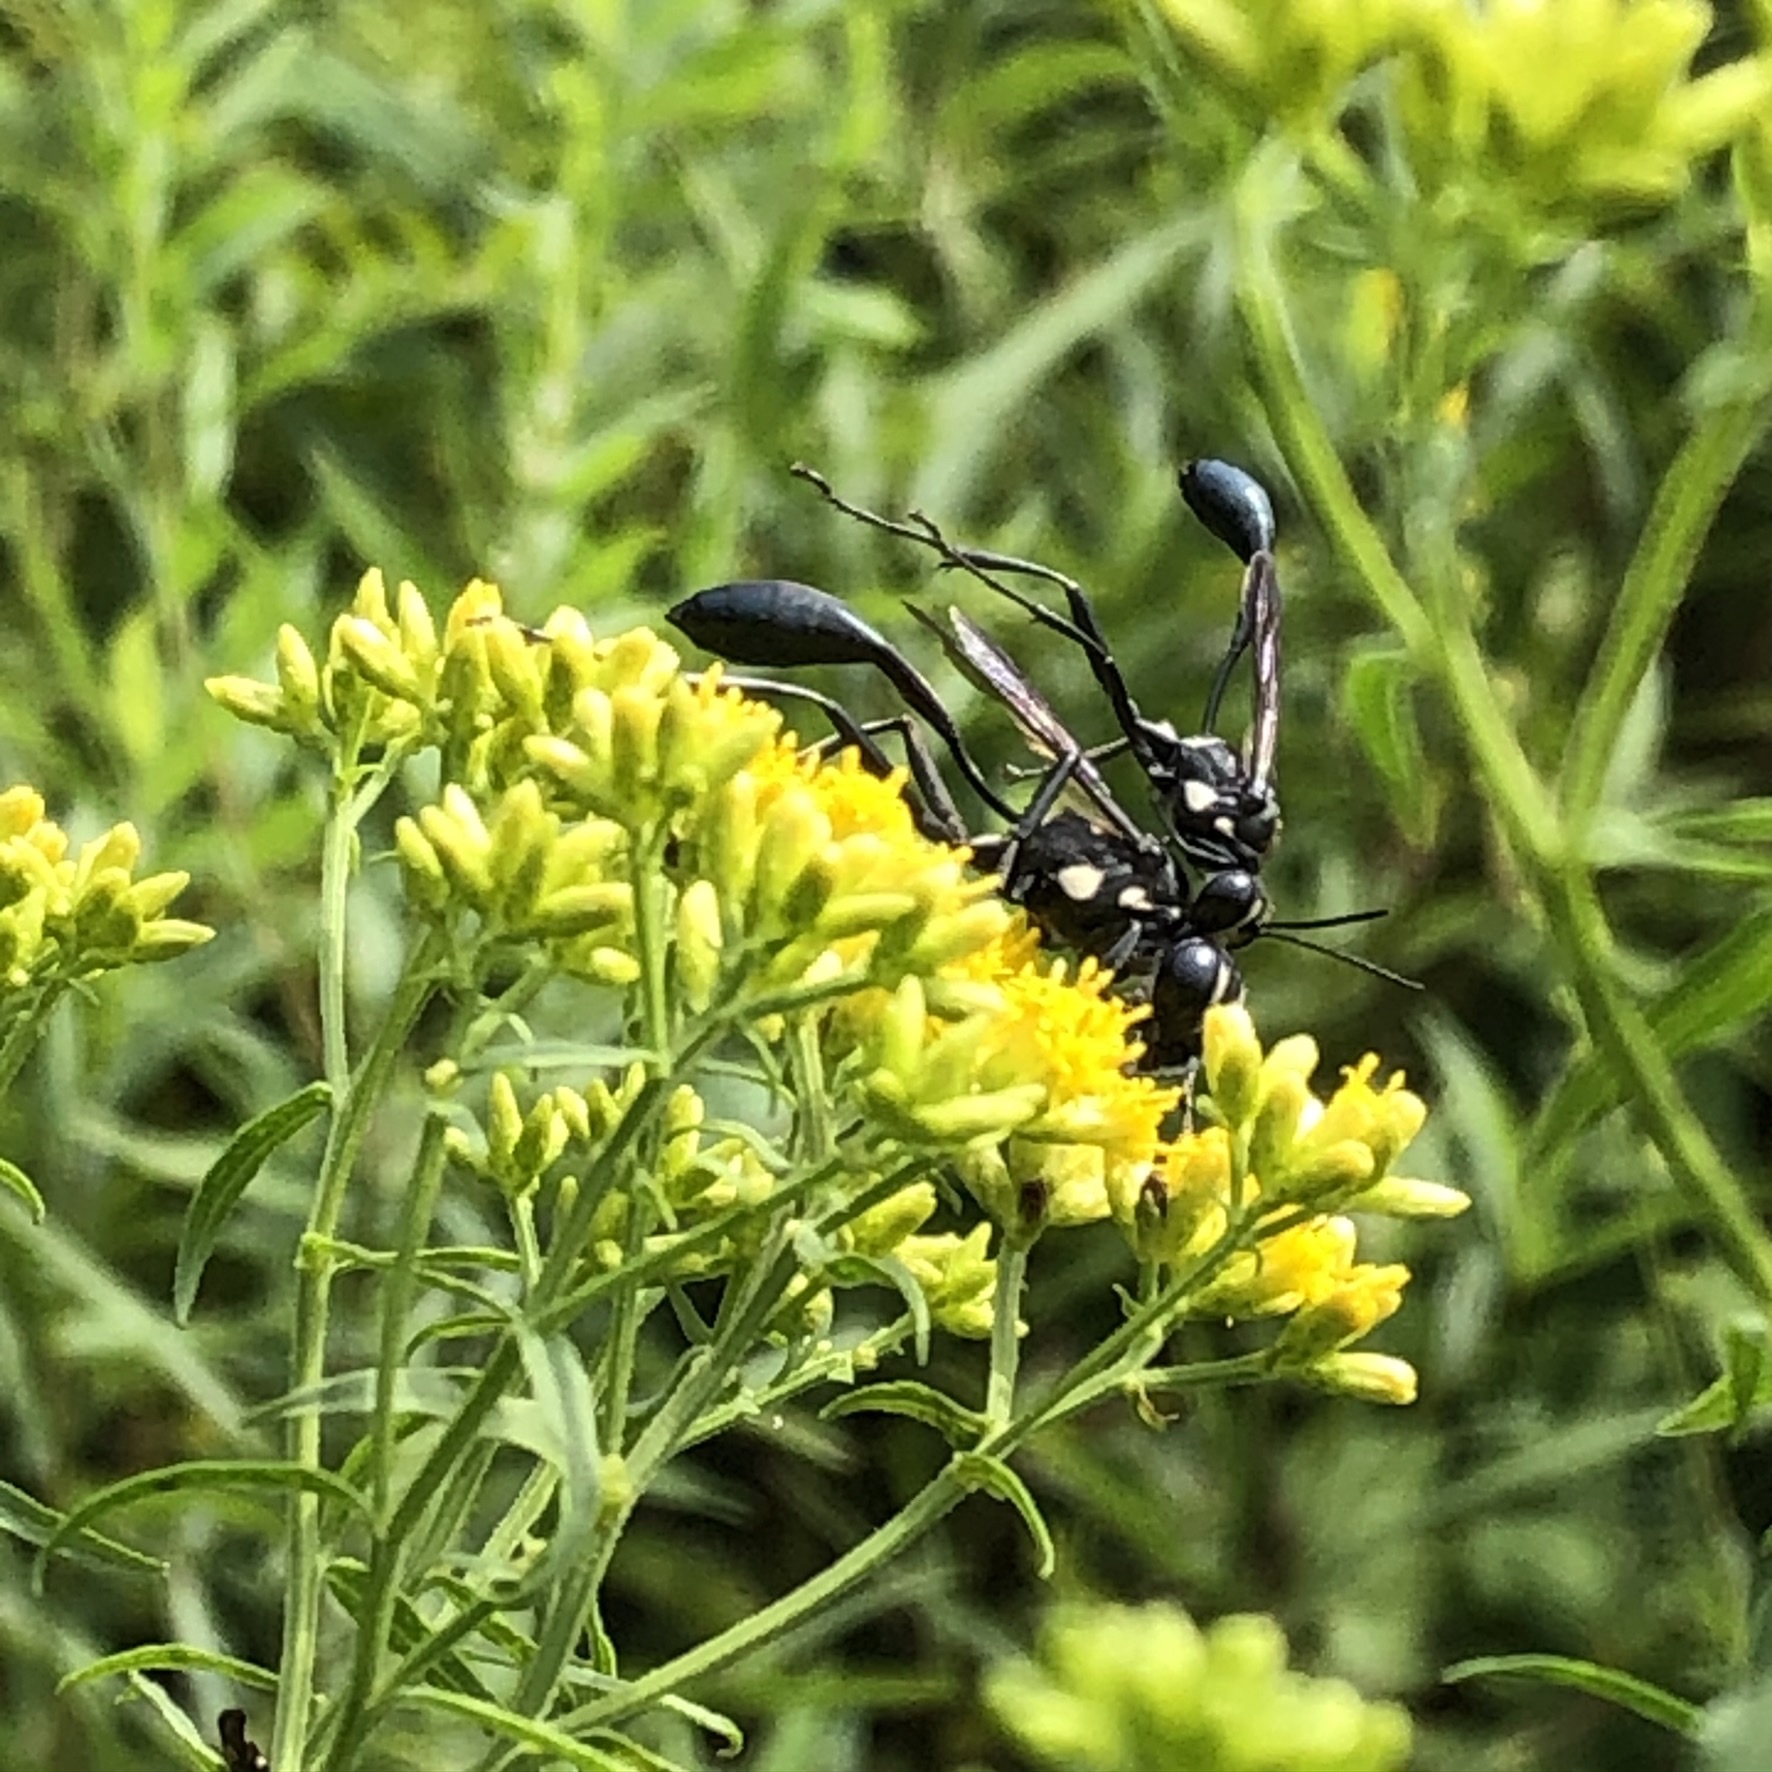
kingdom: Animalia
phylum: Arthropoda
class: Insecta
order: Hymenoptera
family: Sphecidae
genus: Eremnophila
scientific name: Eremnophila aureonotata
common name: Gold-marked thread-waisted wasp
